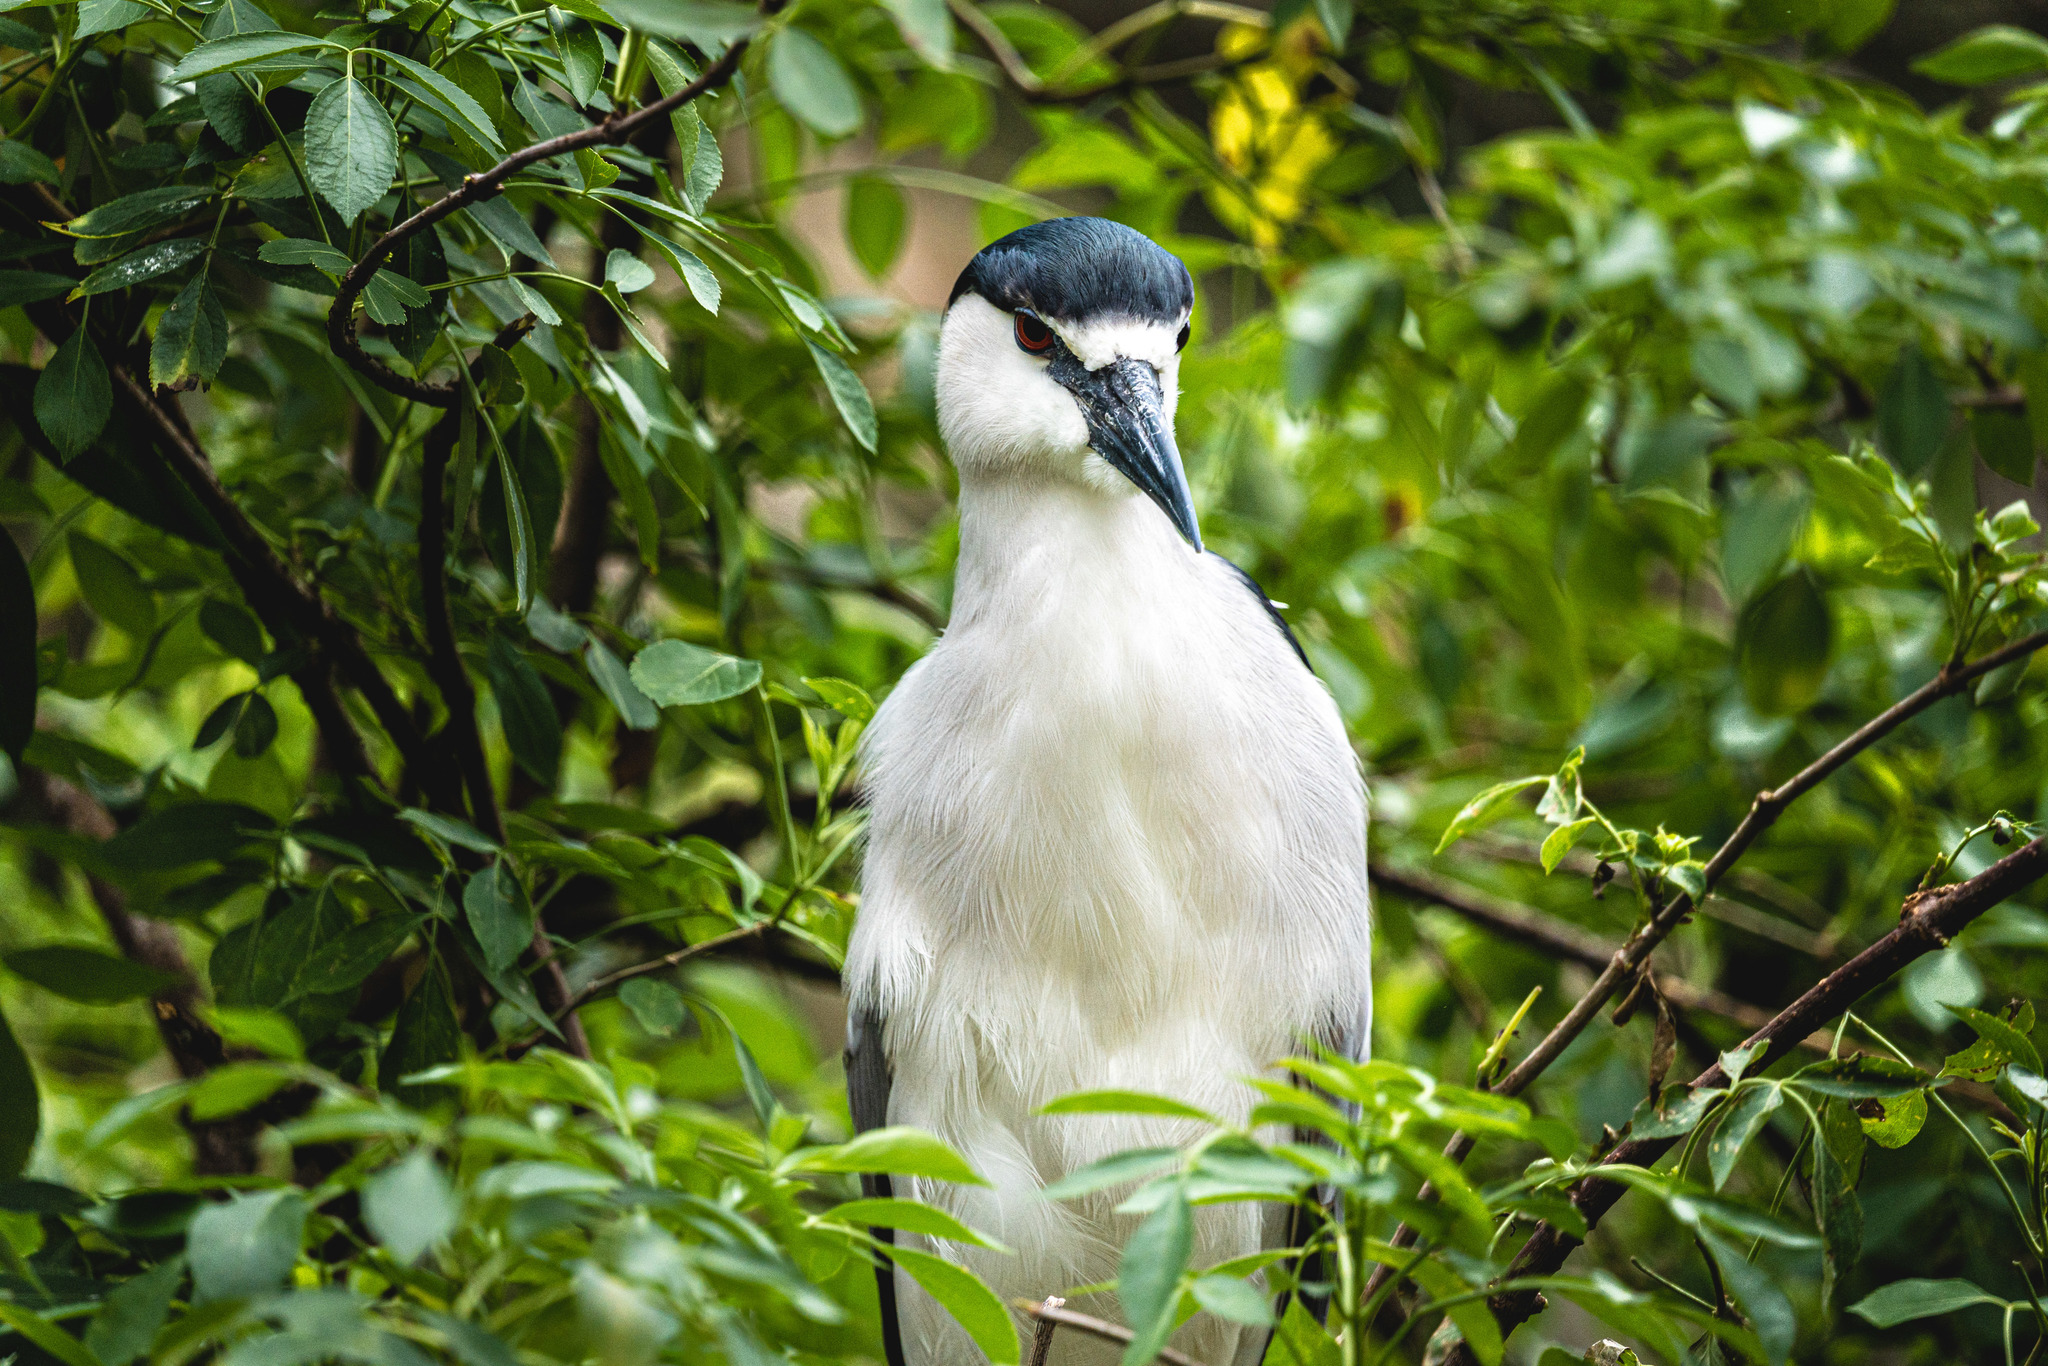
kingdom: Animalia
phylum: Chordata
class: Aves
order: Pelecaniformes
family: Ardeidae
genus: Nycticorax
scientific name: Nycticorax nycticorax
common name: Black-crowned night heron
